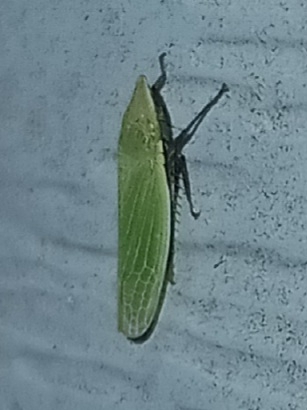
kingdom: Animalia
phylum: Arthropoda
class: Insecta
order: Hemiptera
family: Cicadellidae
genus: Draeculacephala
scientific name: Draeculacephala bradleyi
